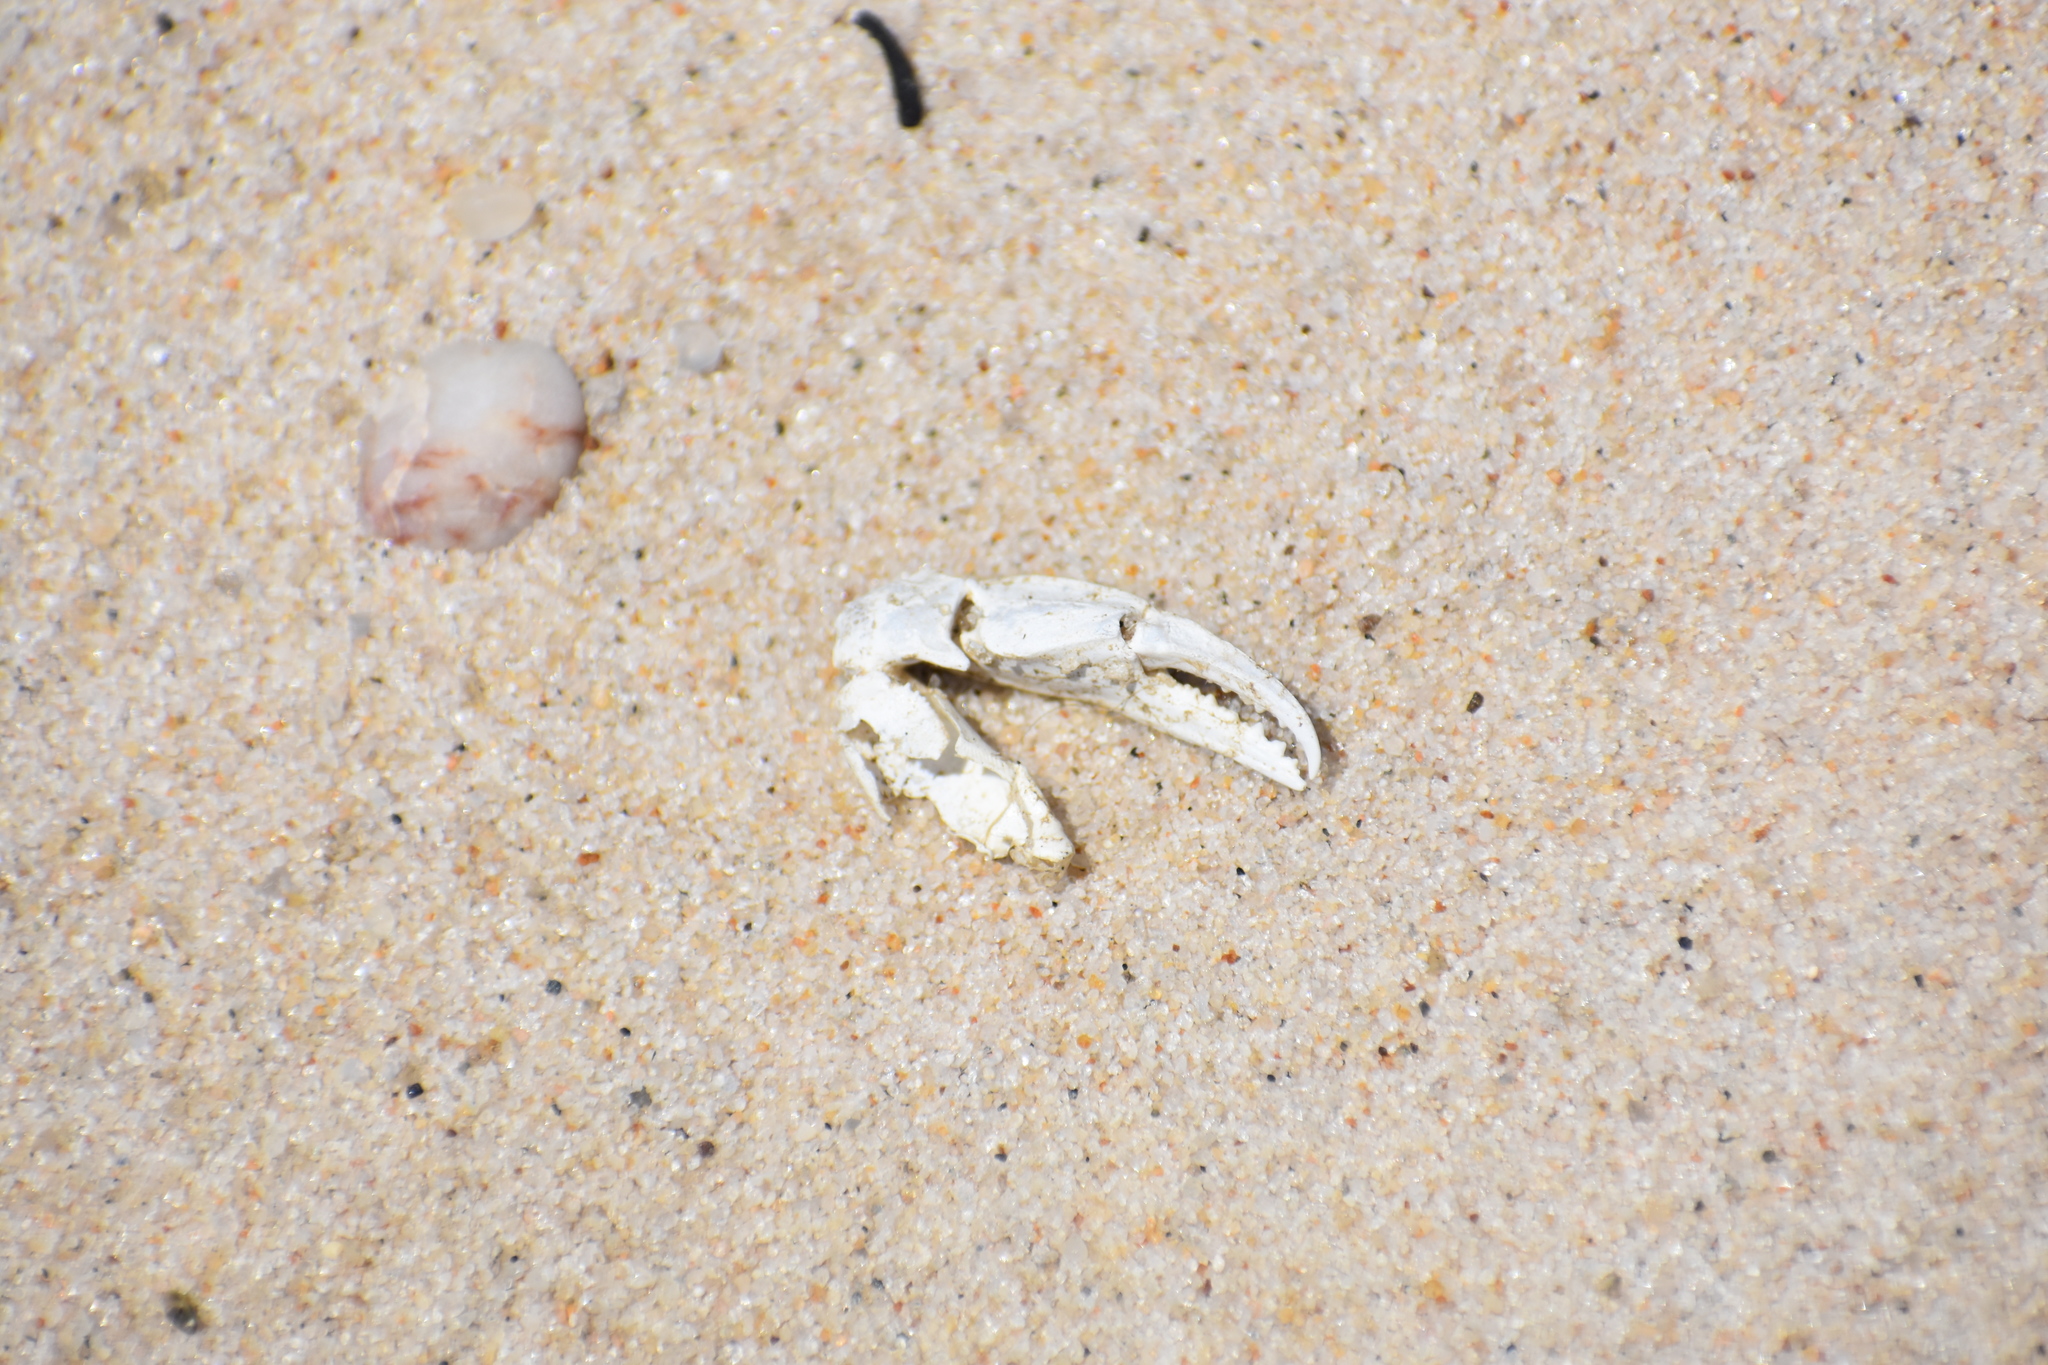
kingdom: Animalia
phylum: Arthropoda
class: Malacostraca
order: Decapoda
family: Portunidae
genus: Callinectes
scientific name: Callinectes sapidus
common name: Blue crab
